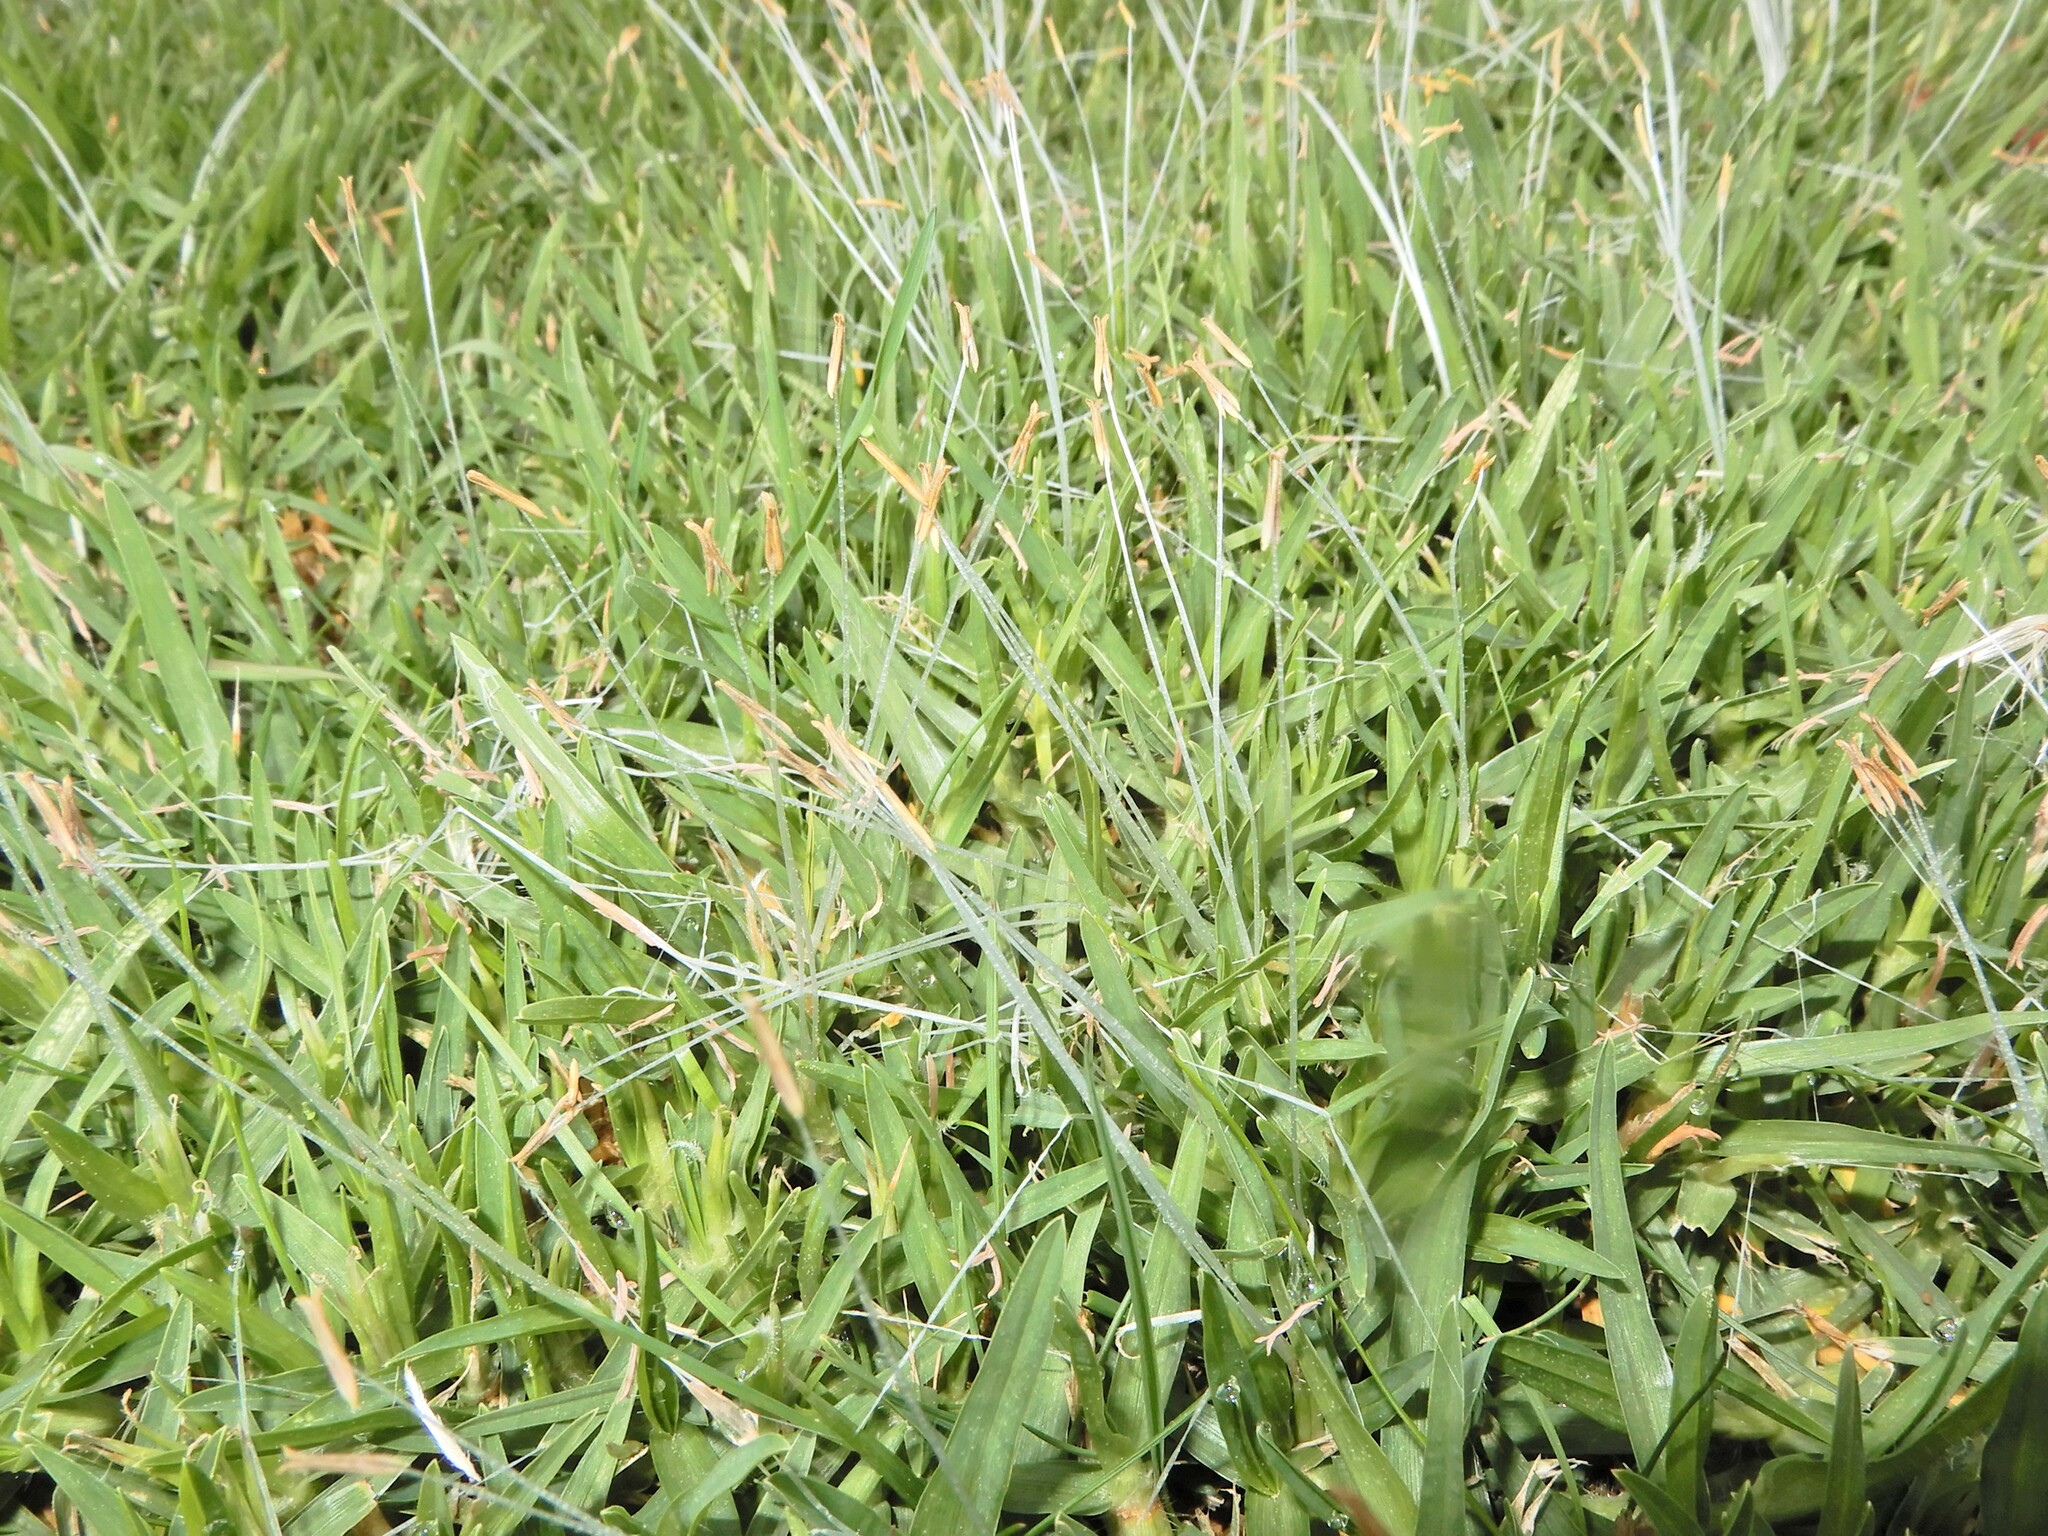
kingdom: Plantae
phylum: Tracheophyta
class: Liliopsida
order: Poales
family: Poaceae
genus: Cenchrus
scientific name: Cenchrus clandestinus
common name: Kikuyugrass
